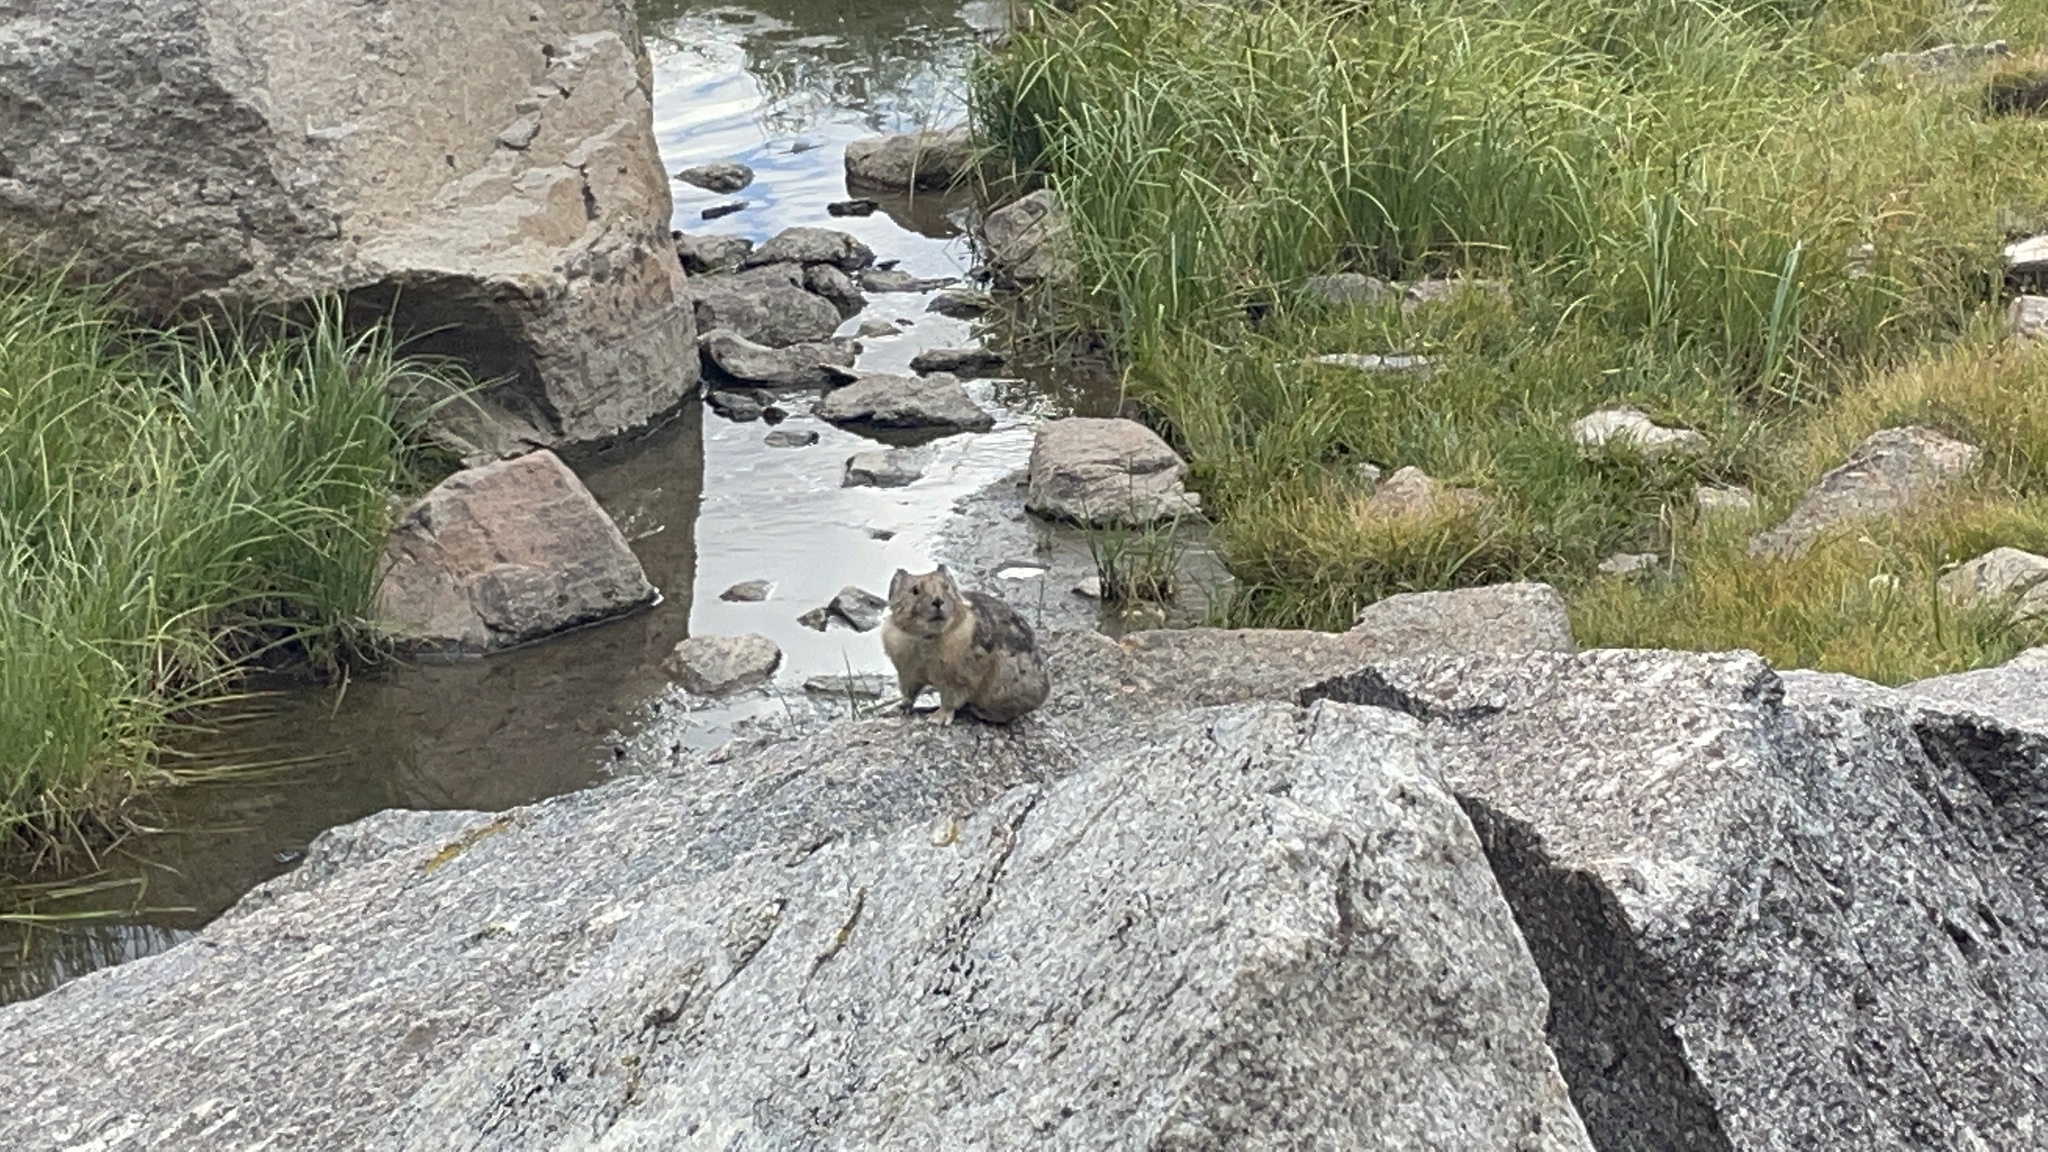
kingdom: Animalia
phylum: Chordata
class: Mammalia
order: Lagomorpha
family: Ochotonidae
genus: Ochotona
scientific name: Ochotona princeps
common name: American pika
